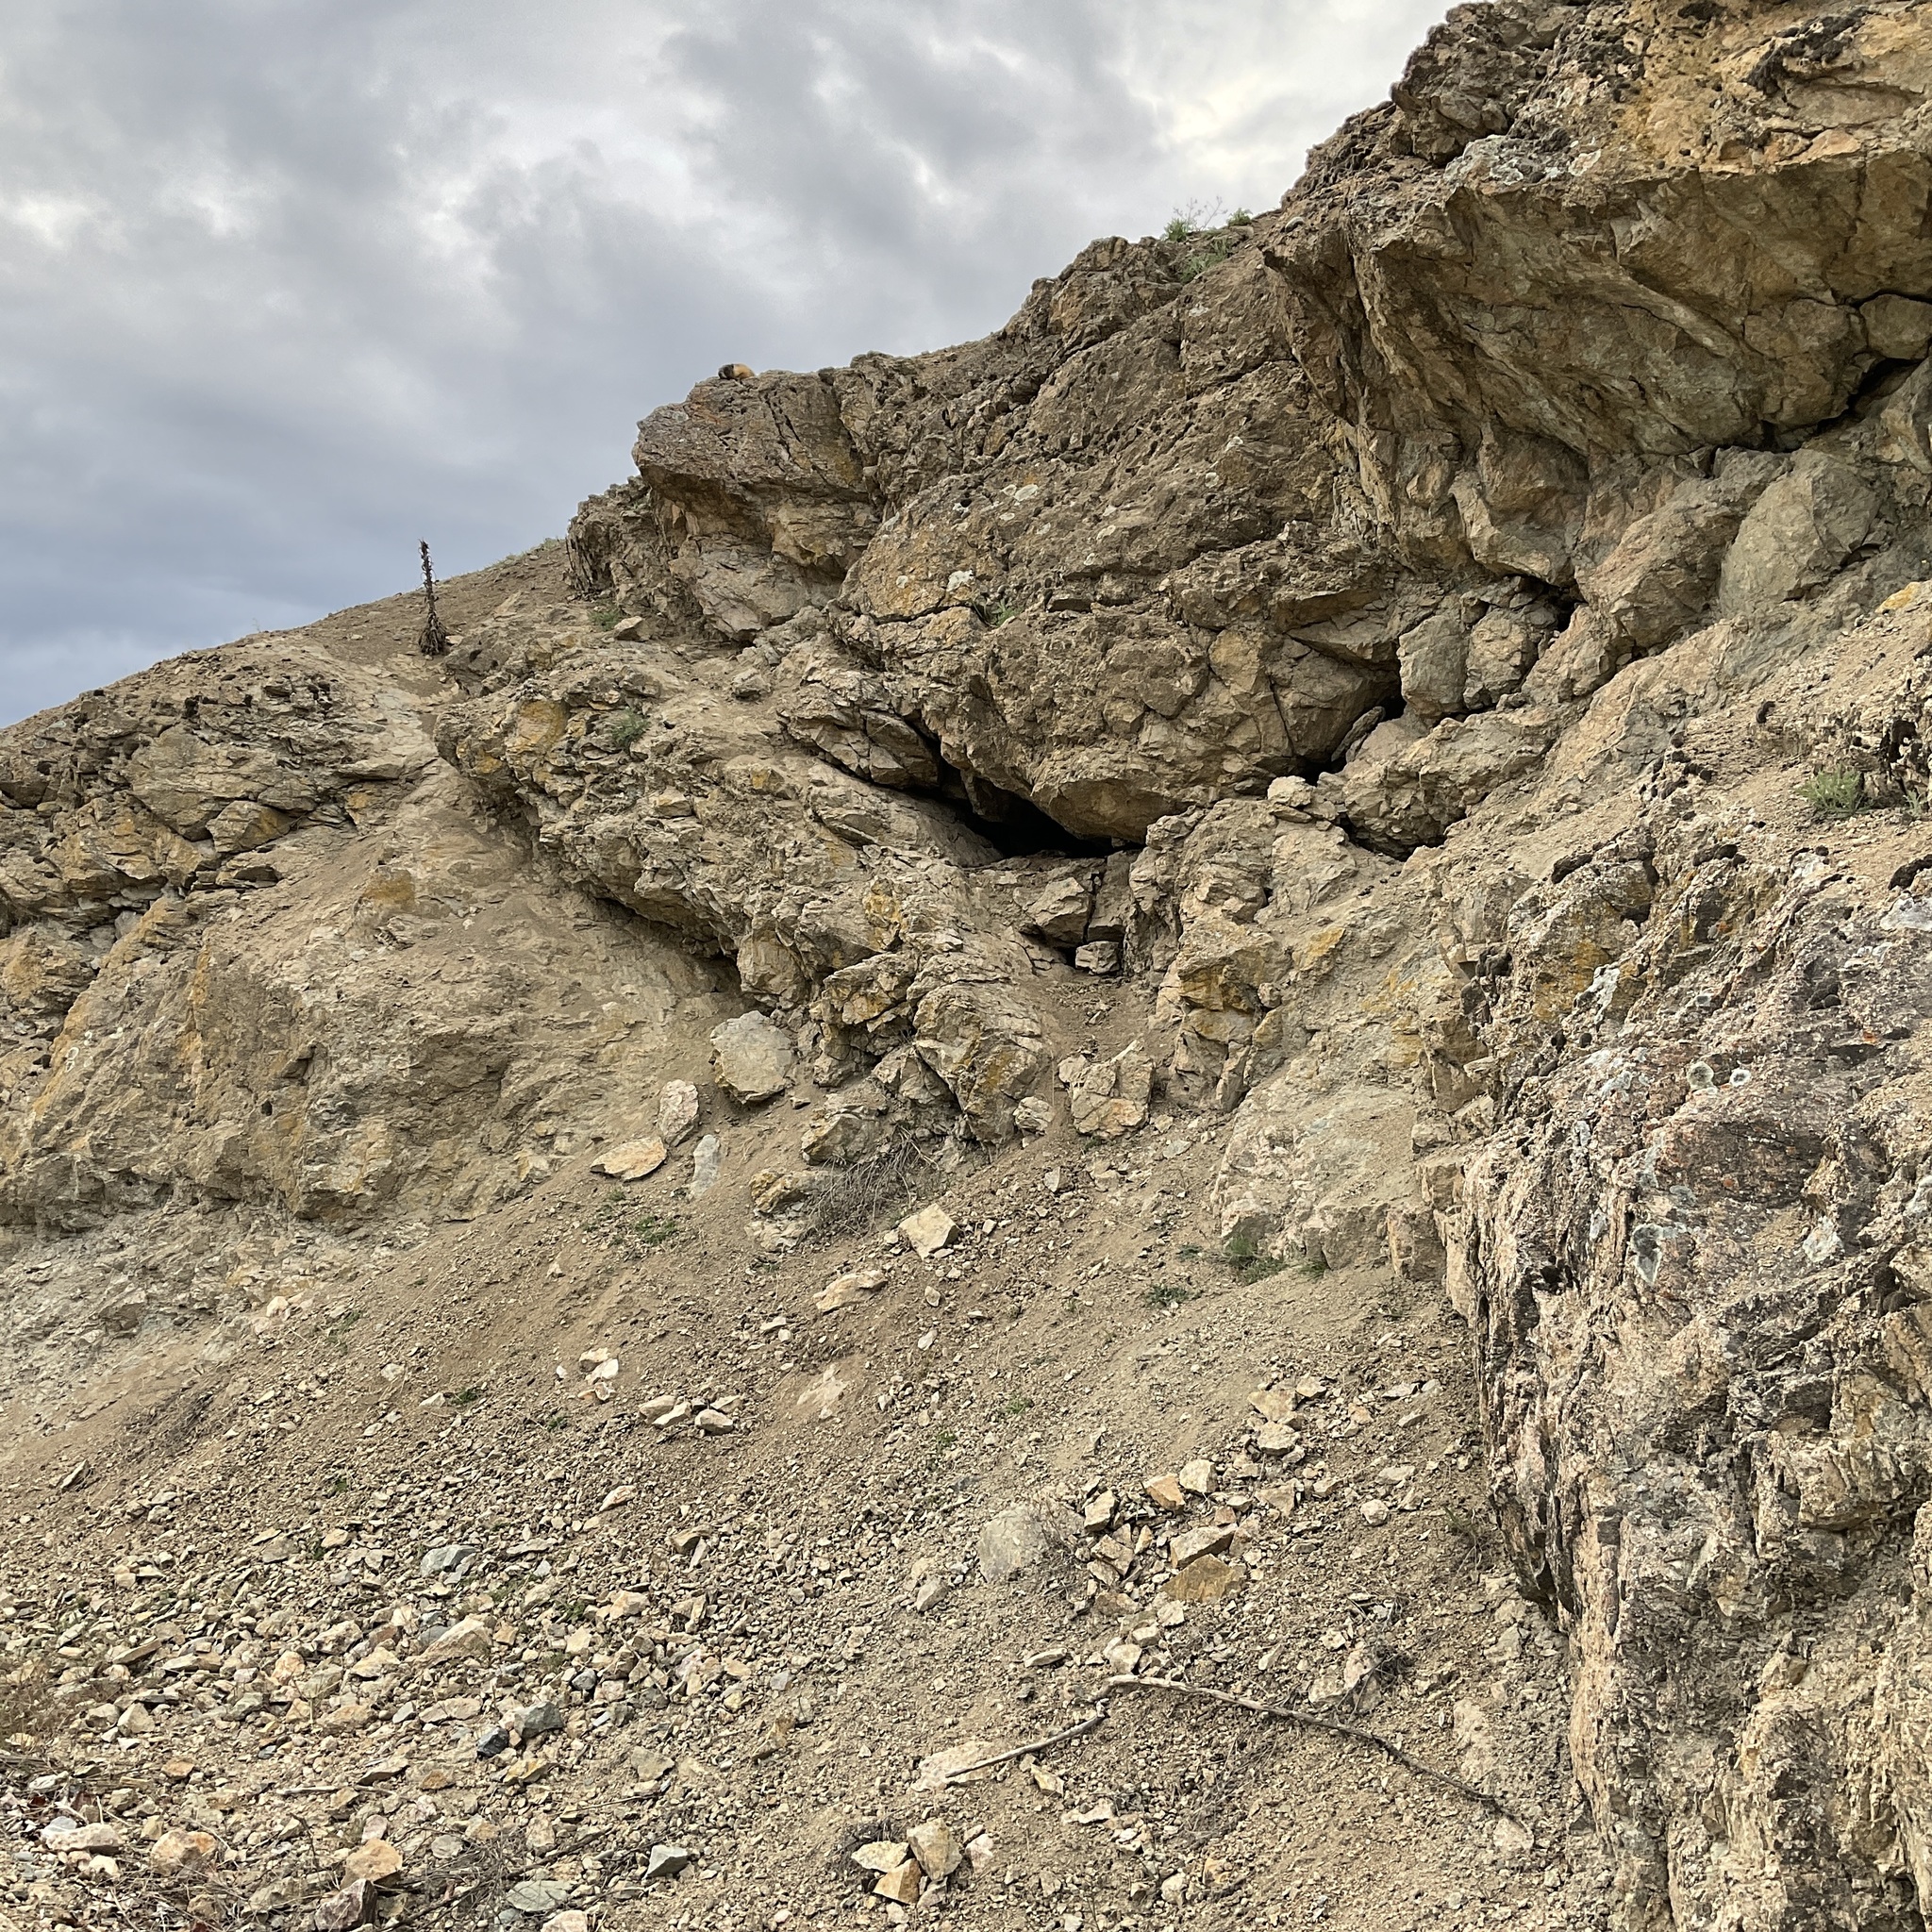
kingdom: Animalia
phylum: Chordata
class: Mammalia
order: Rodentia
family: Sciuridae
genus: Marmota
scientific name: Marmota flaviventris
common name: Yellow-bellied marmot
